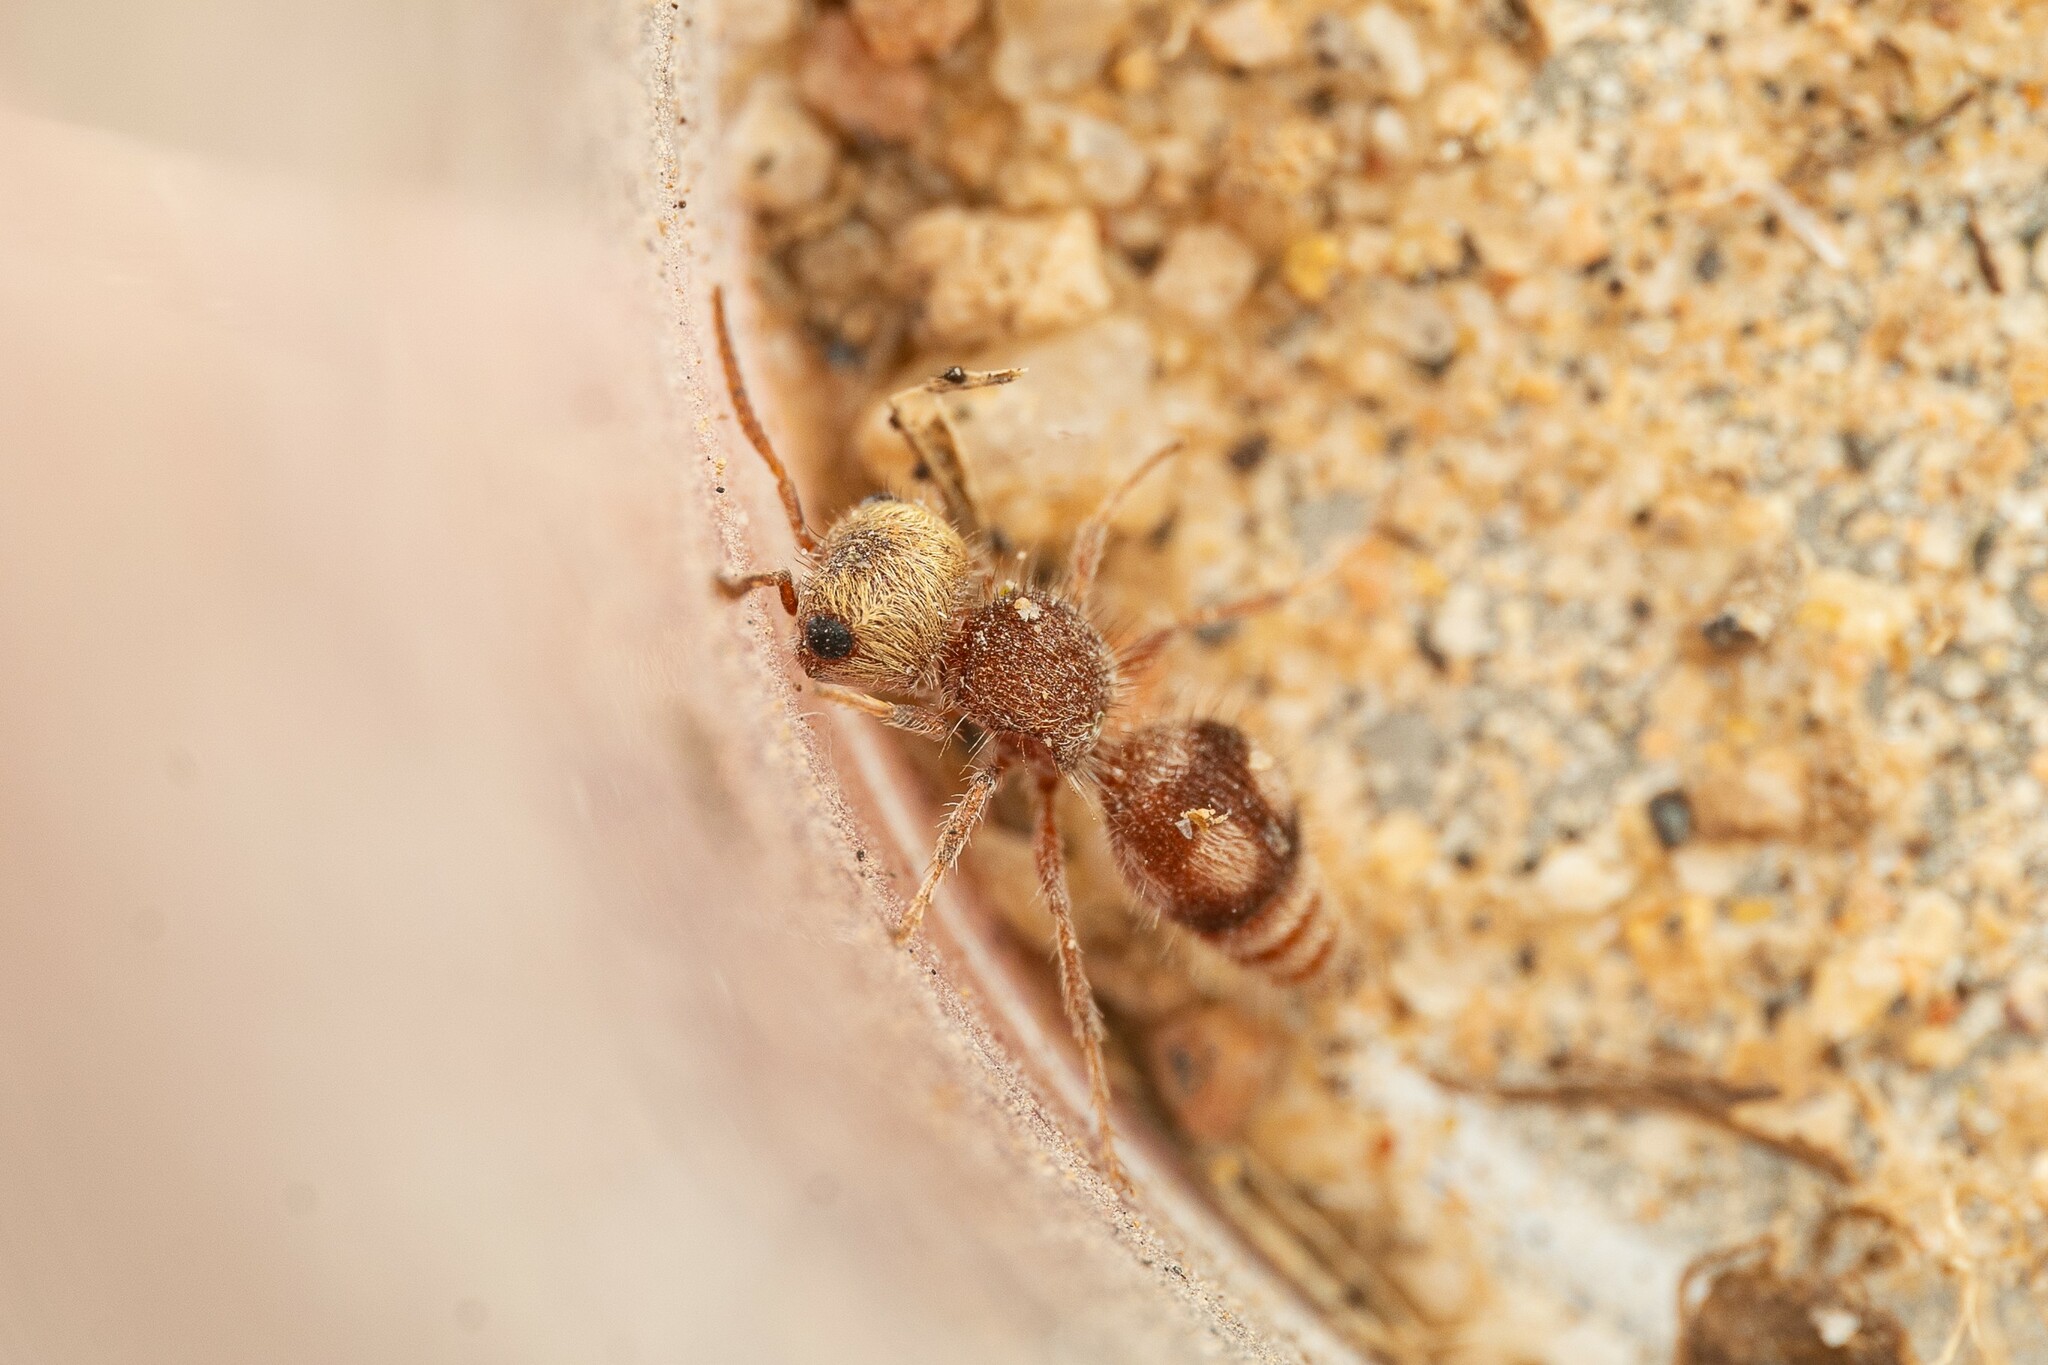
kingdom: Animalia
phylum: Arthropoda
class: Insecta
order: Hymenoptera
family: Mutillidae
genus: Pseudomethoca
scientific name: Pseudomethoca
